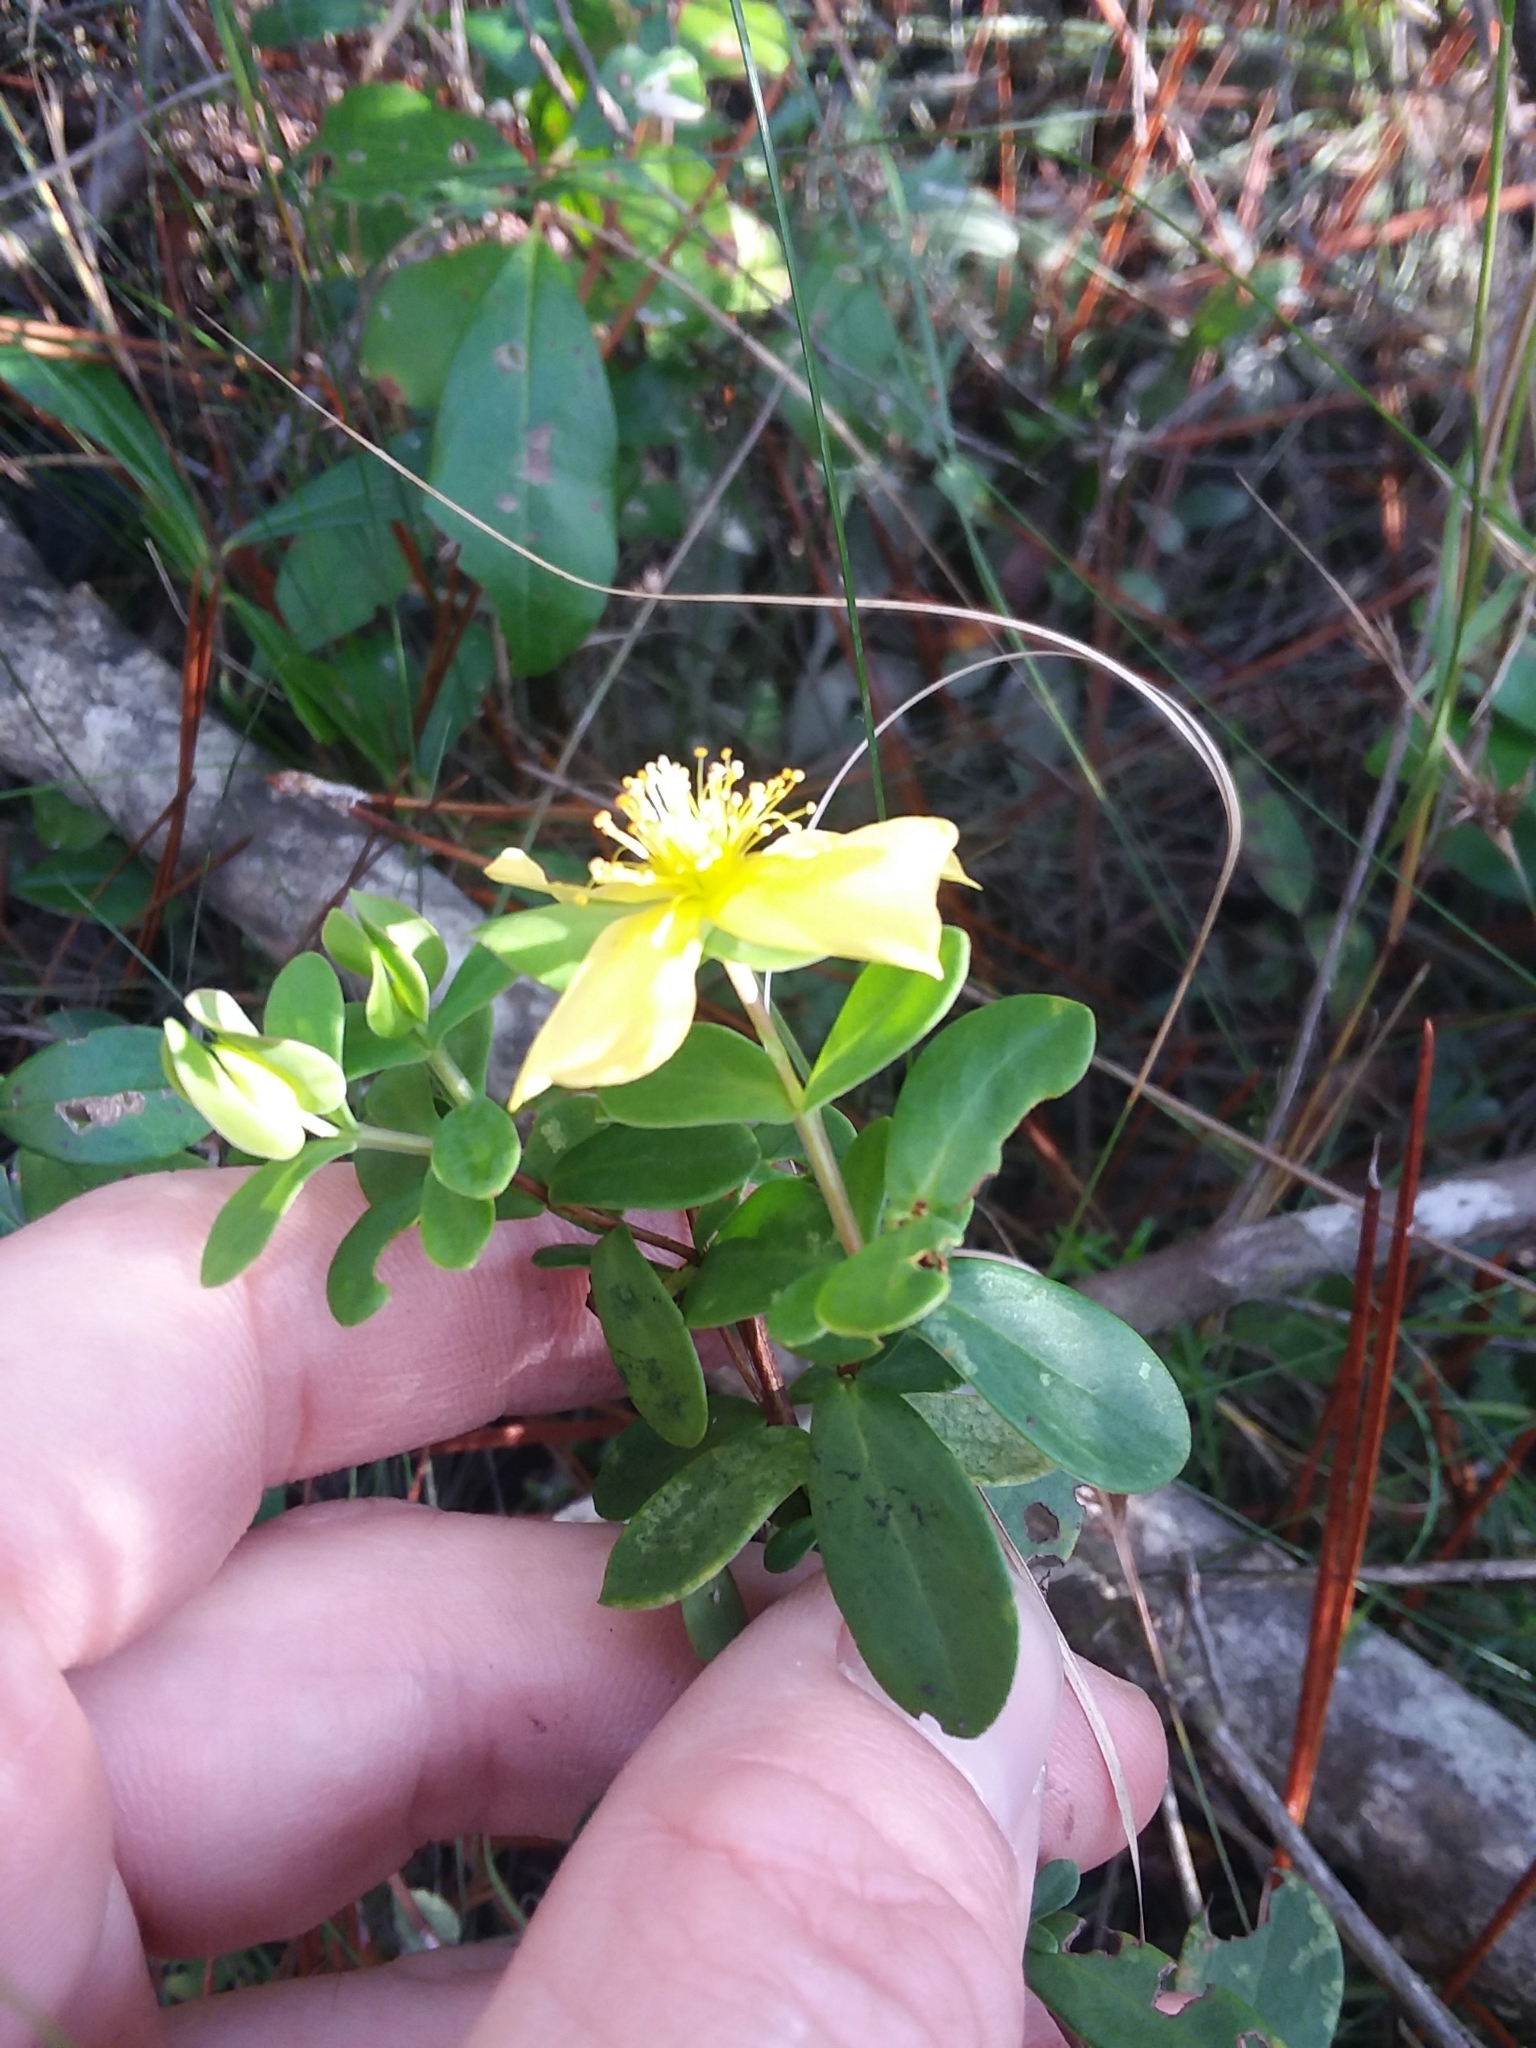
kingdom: Plantae
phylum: Tracheophyta
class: Magnoliopsida
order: Malpighiales
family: Hypericaceae
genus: Hypericum
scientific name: Hypericum crux-andreae
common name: St.-peter's-wort
